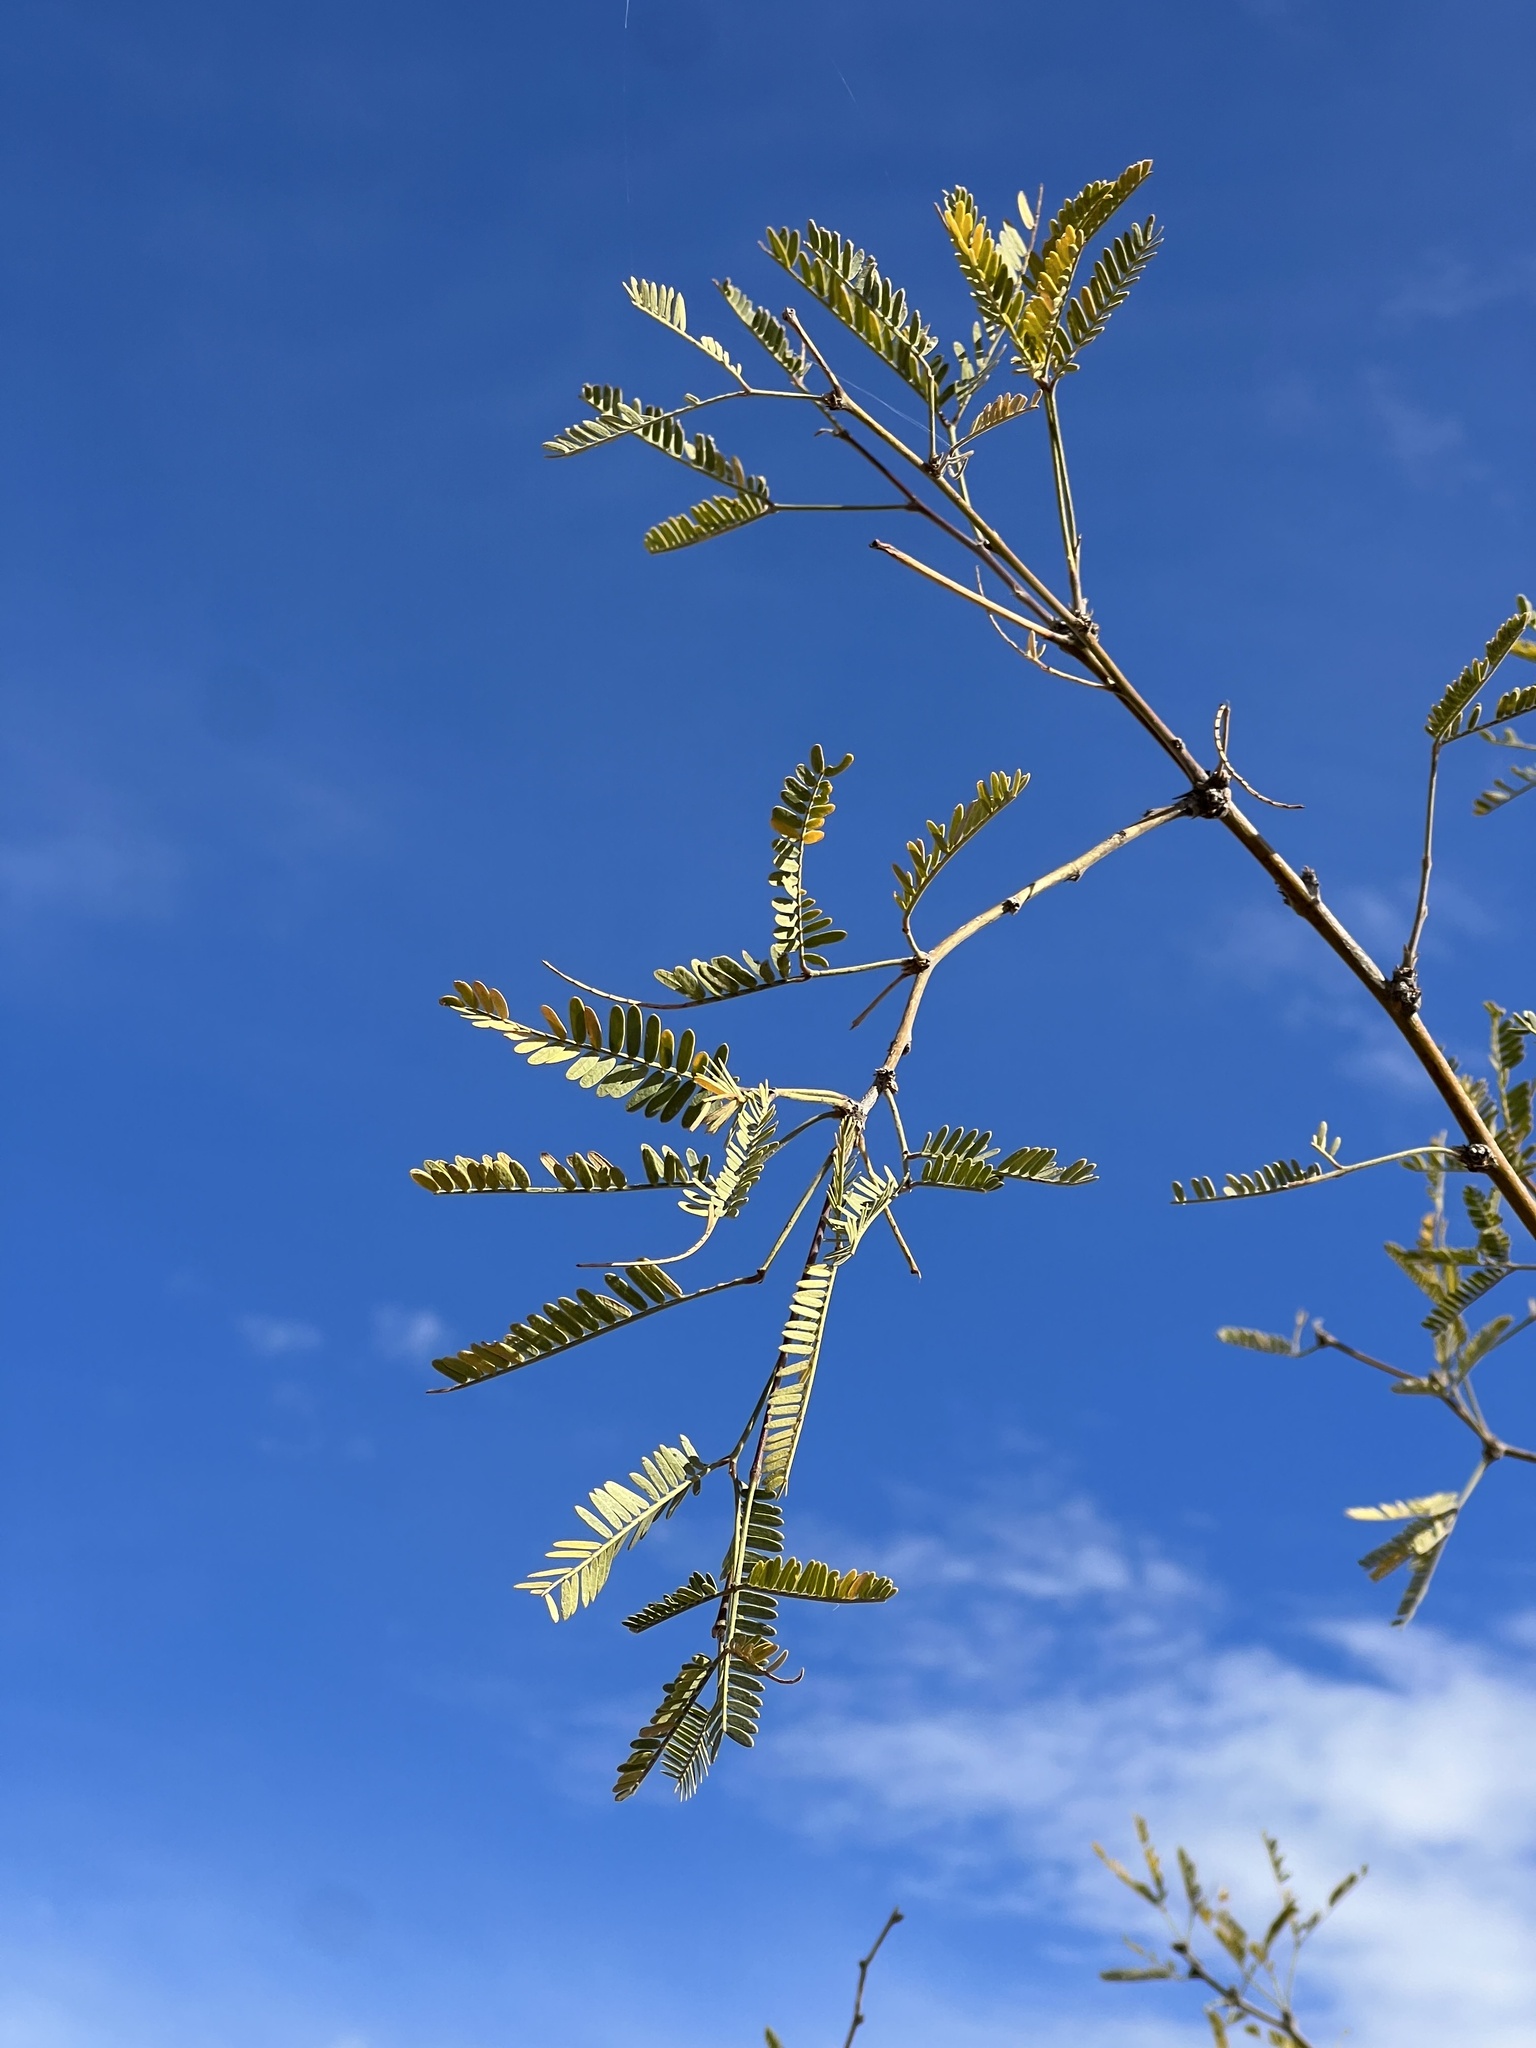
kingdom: Plantae
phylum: Tracheophyta
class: Magnoliopsida
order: Fabales
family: Fabaceae
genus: Prosopis
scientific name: Prosopis velutina
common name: Velvet mesquite
